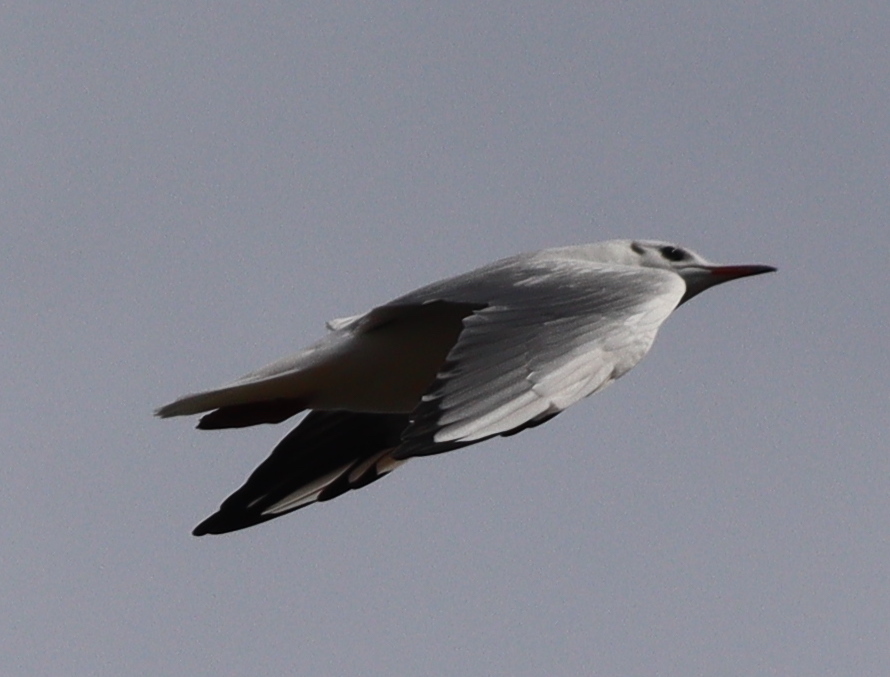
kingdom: Animalia
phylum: Chordata
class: Aves
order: Charadriiformes
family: Laridae
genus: Chroicocephalus
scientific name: Chroicocephalus ridibundus
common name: Black-headed gull
